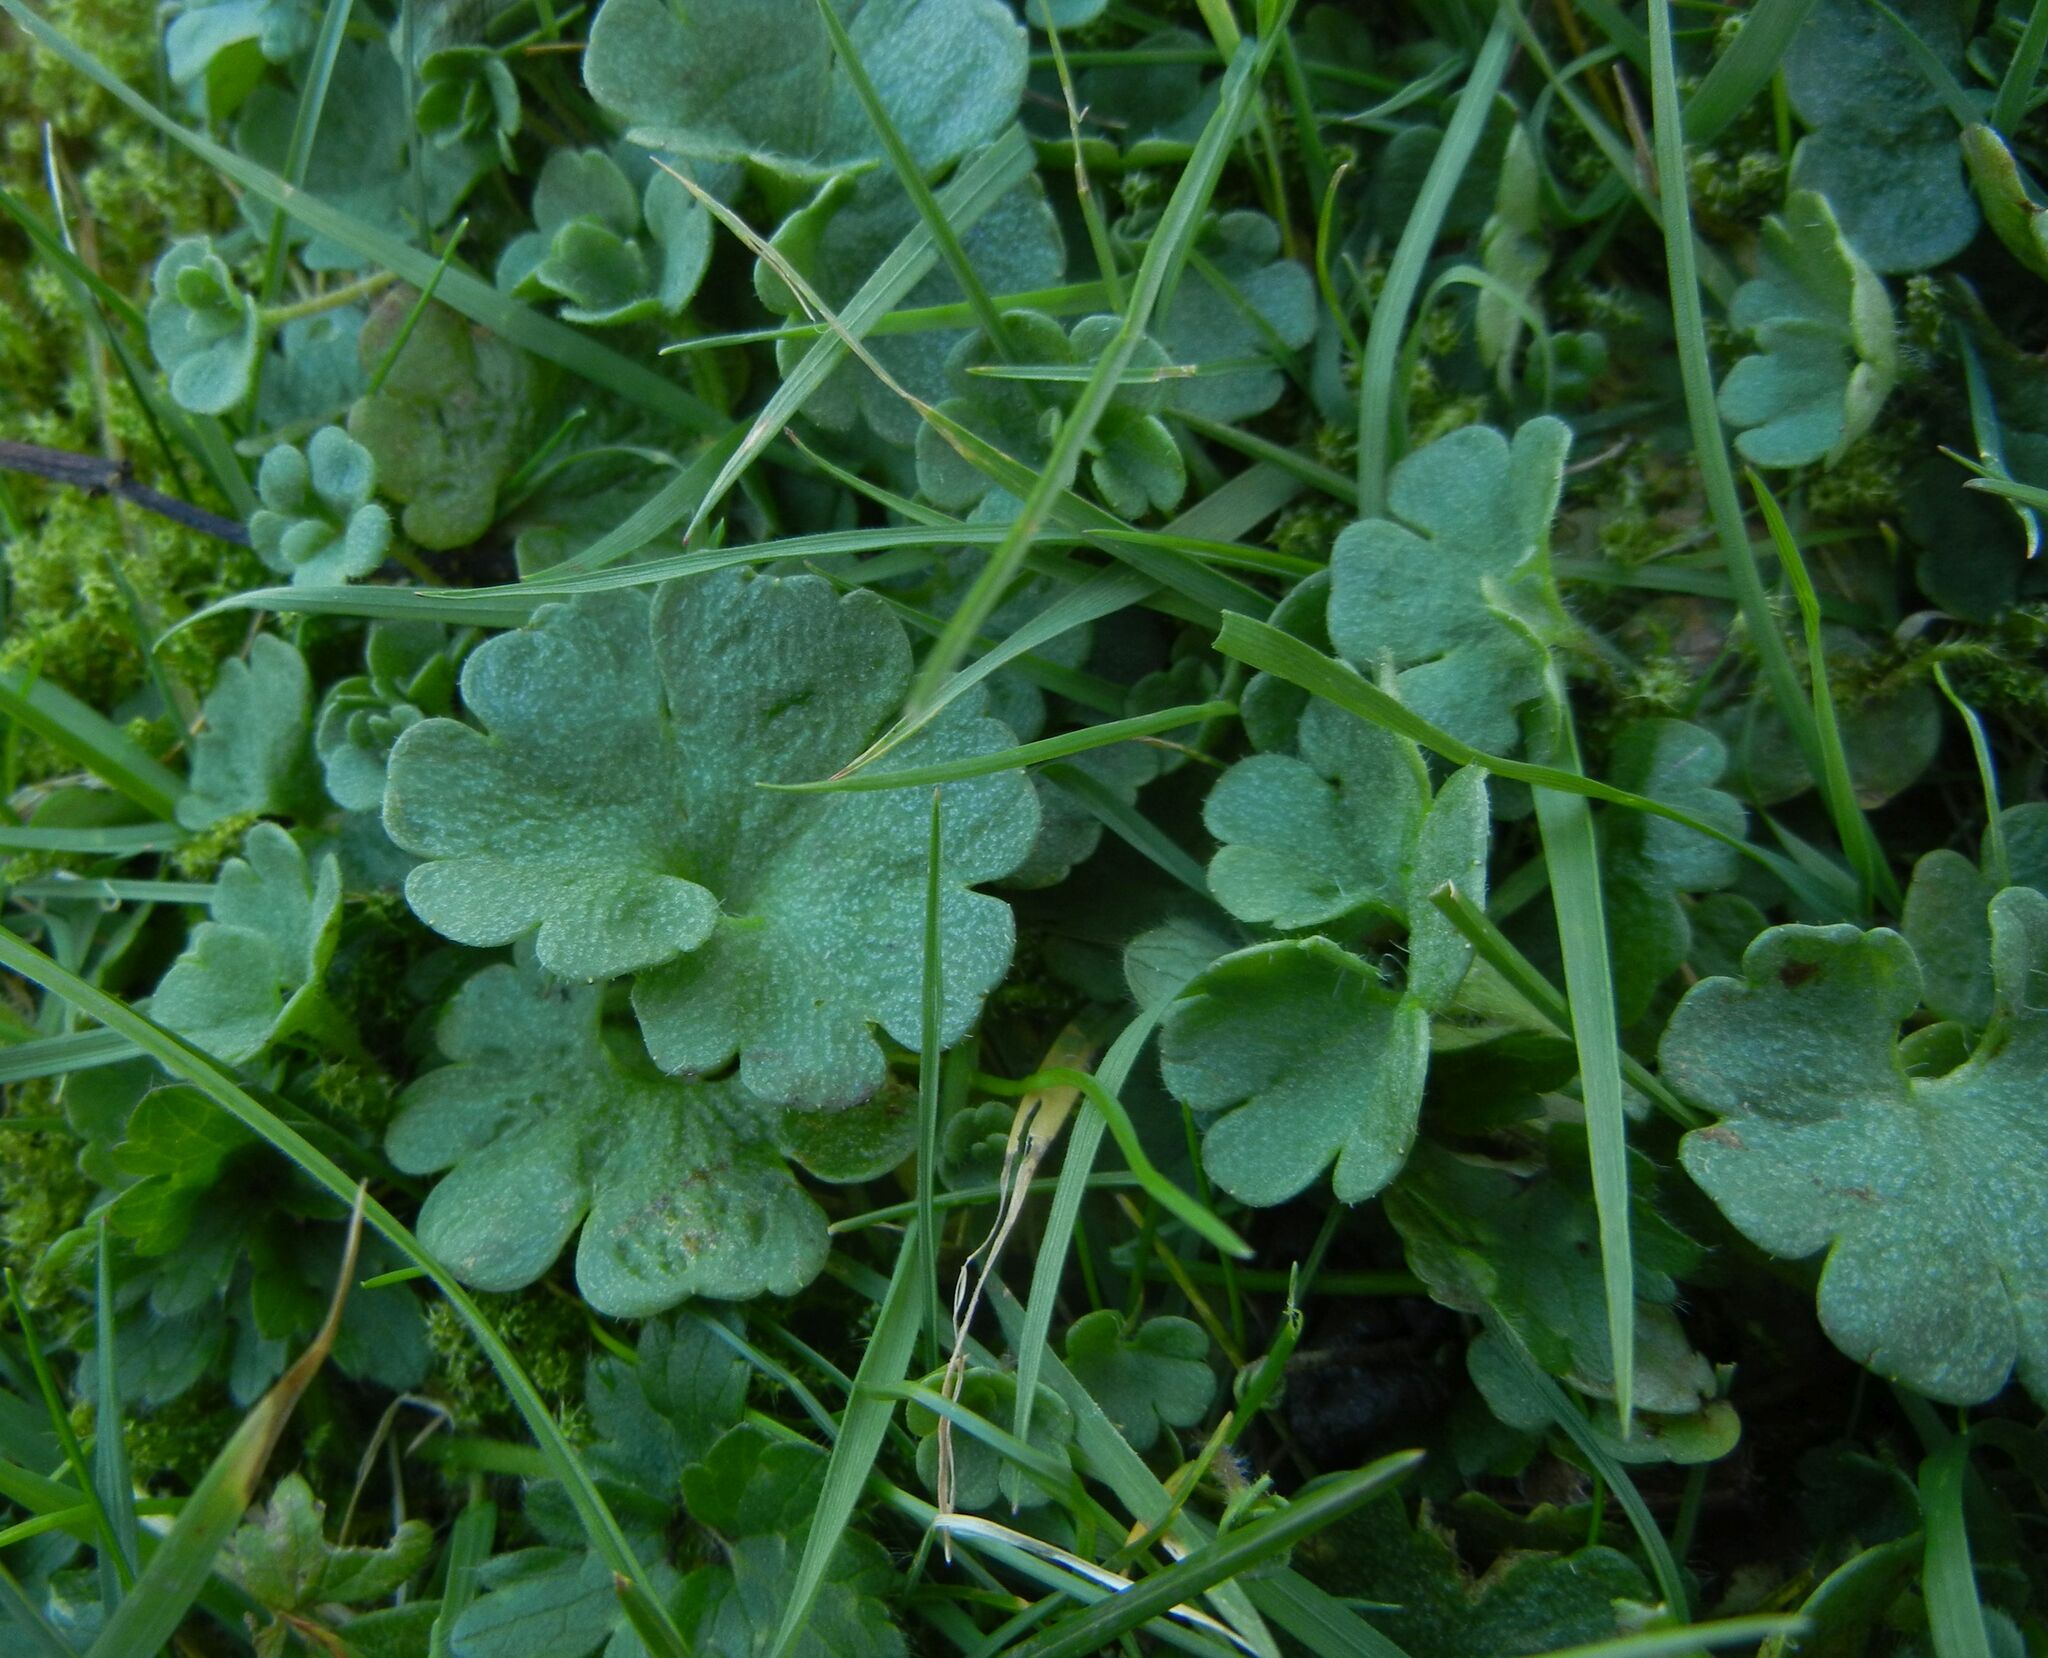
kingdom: Plantae
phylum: Tracheophyta
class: Magnoliopsida
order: Saxifragales
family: Saxifragaceae
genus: Saxifraga
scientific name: Saxifraga granulata
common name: Meadow saxifrage
